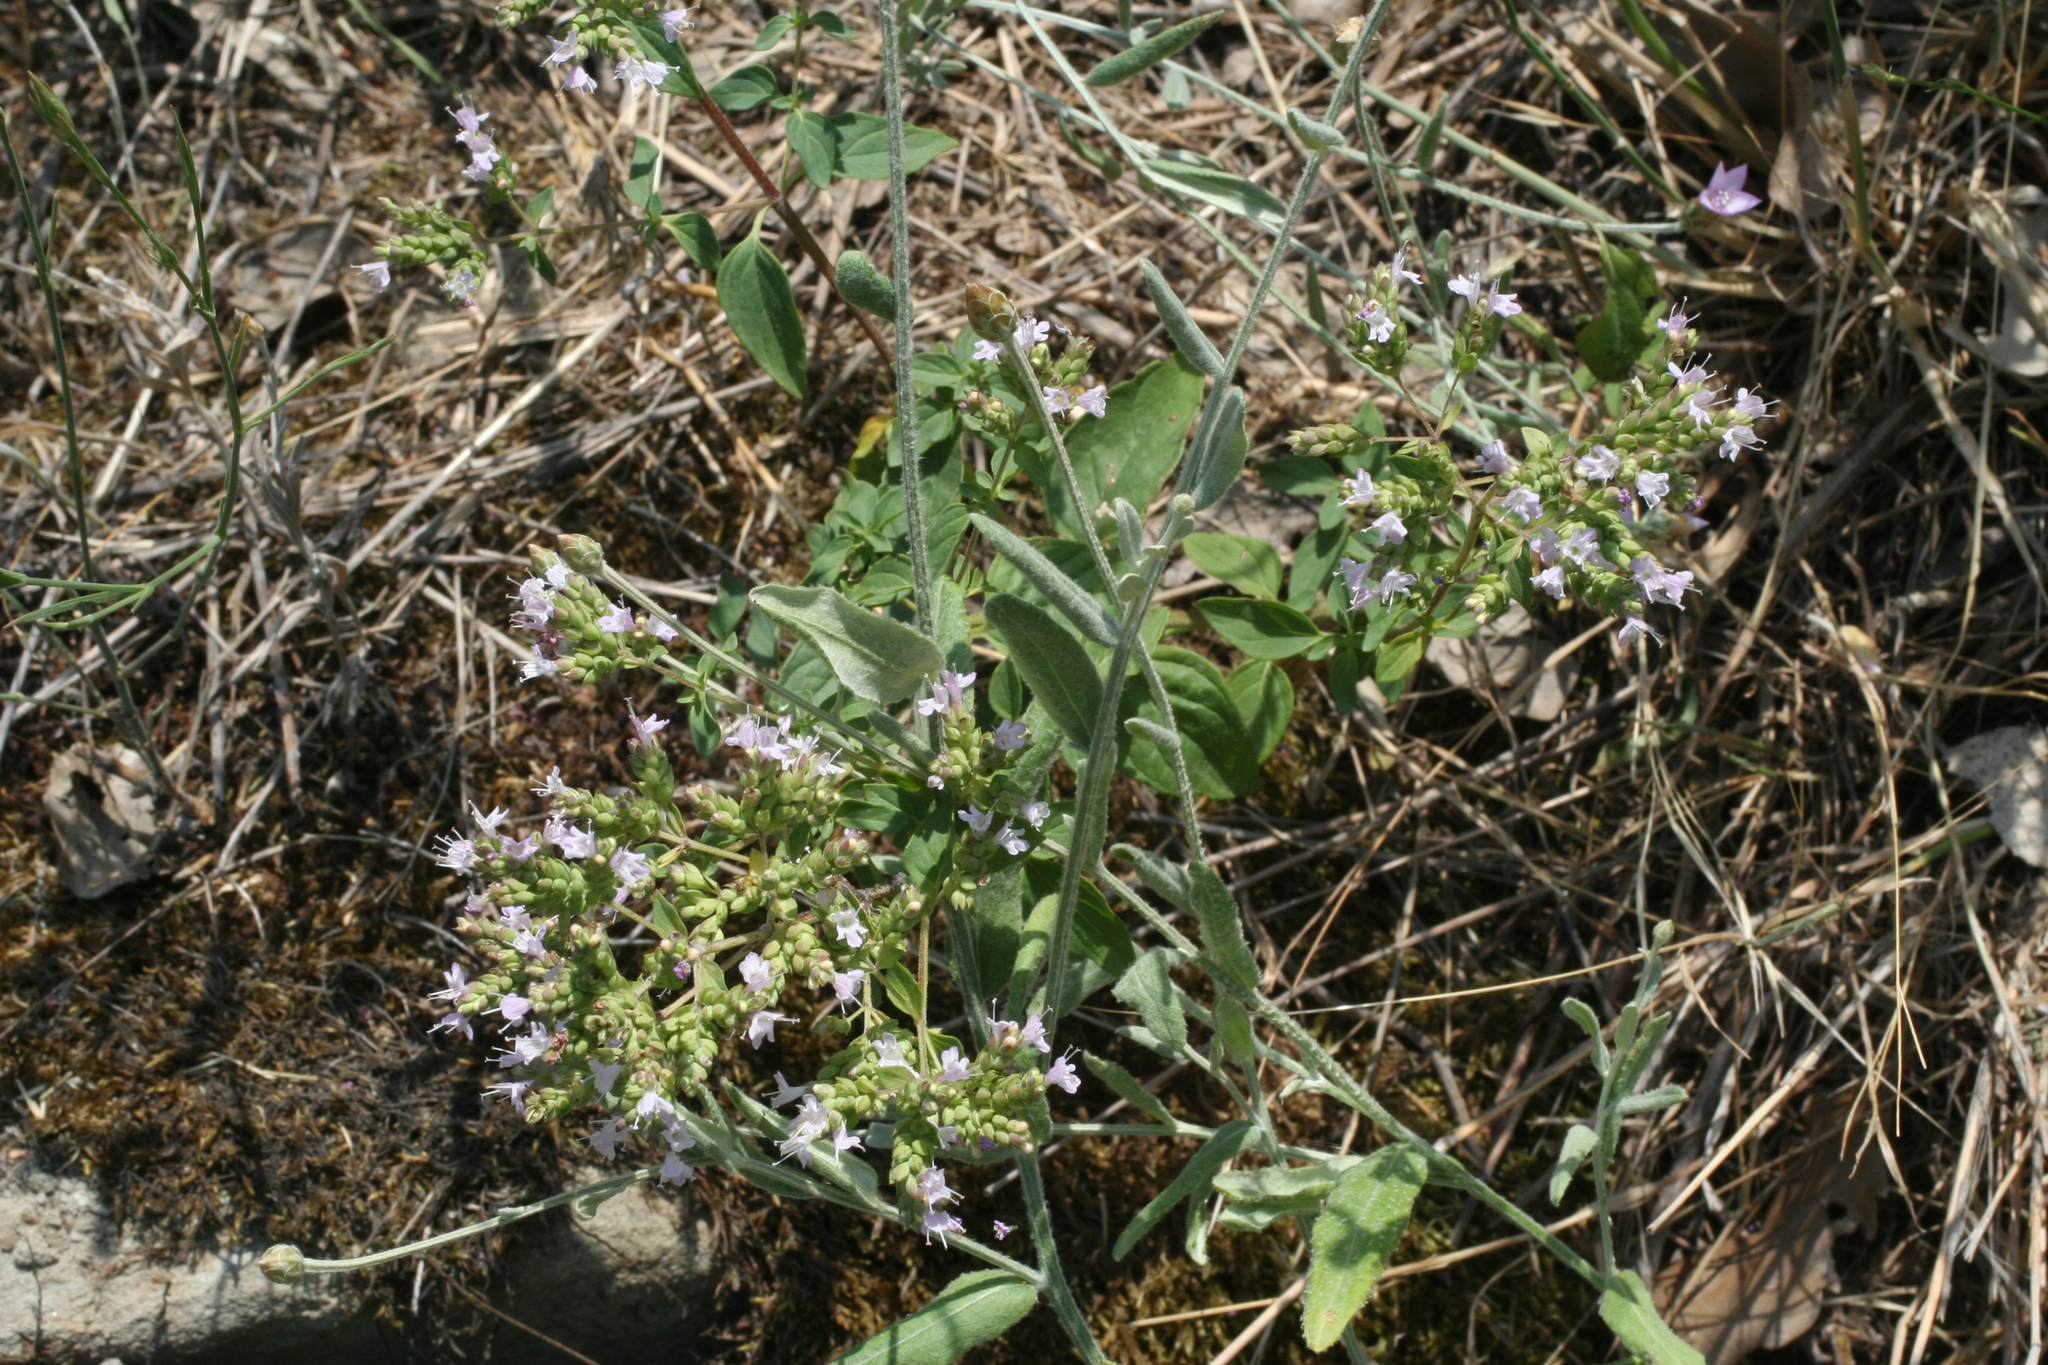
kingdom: Plantae
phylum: Tracheophyta
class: Magnoliopsida
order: Lamiales
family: Lamiaceae
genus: Origanum
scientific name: Origanum vulgare
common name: Wild marjoram
